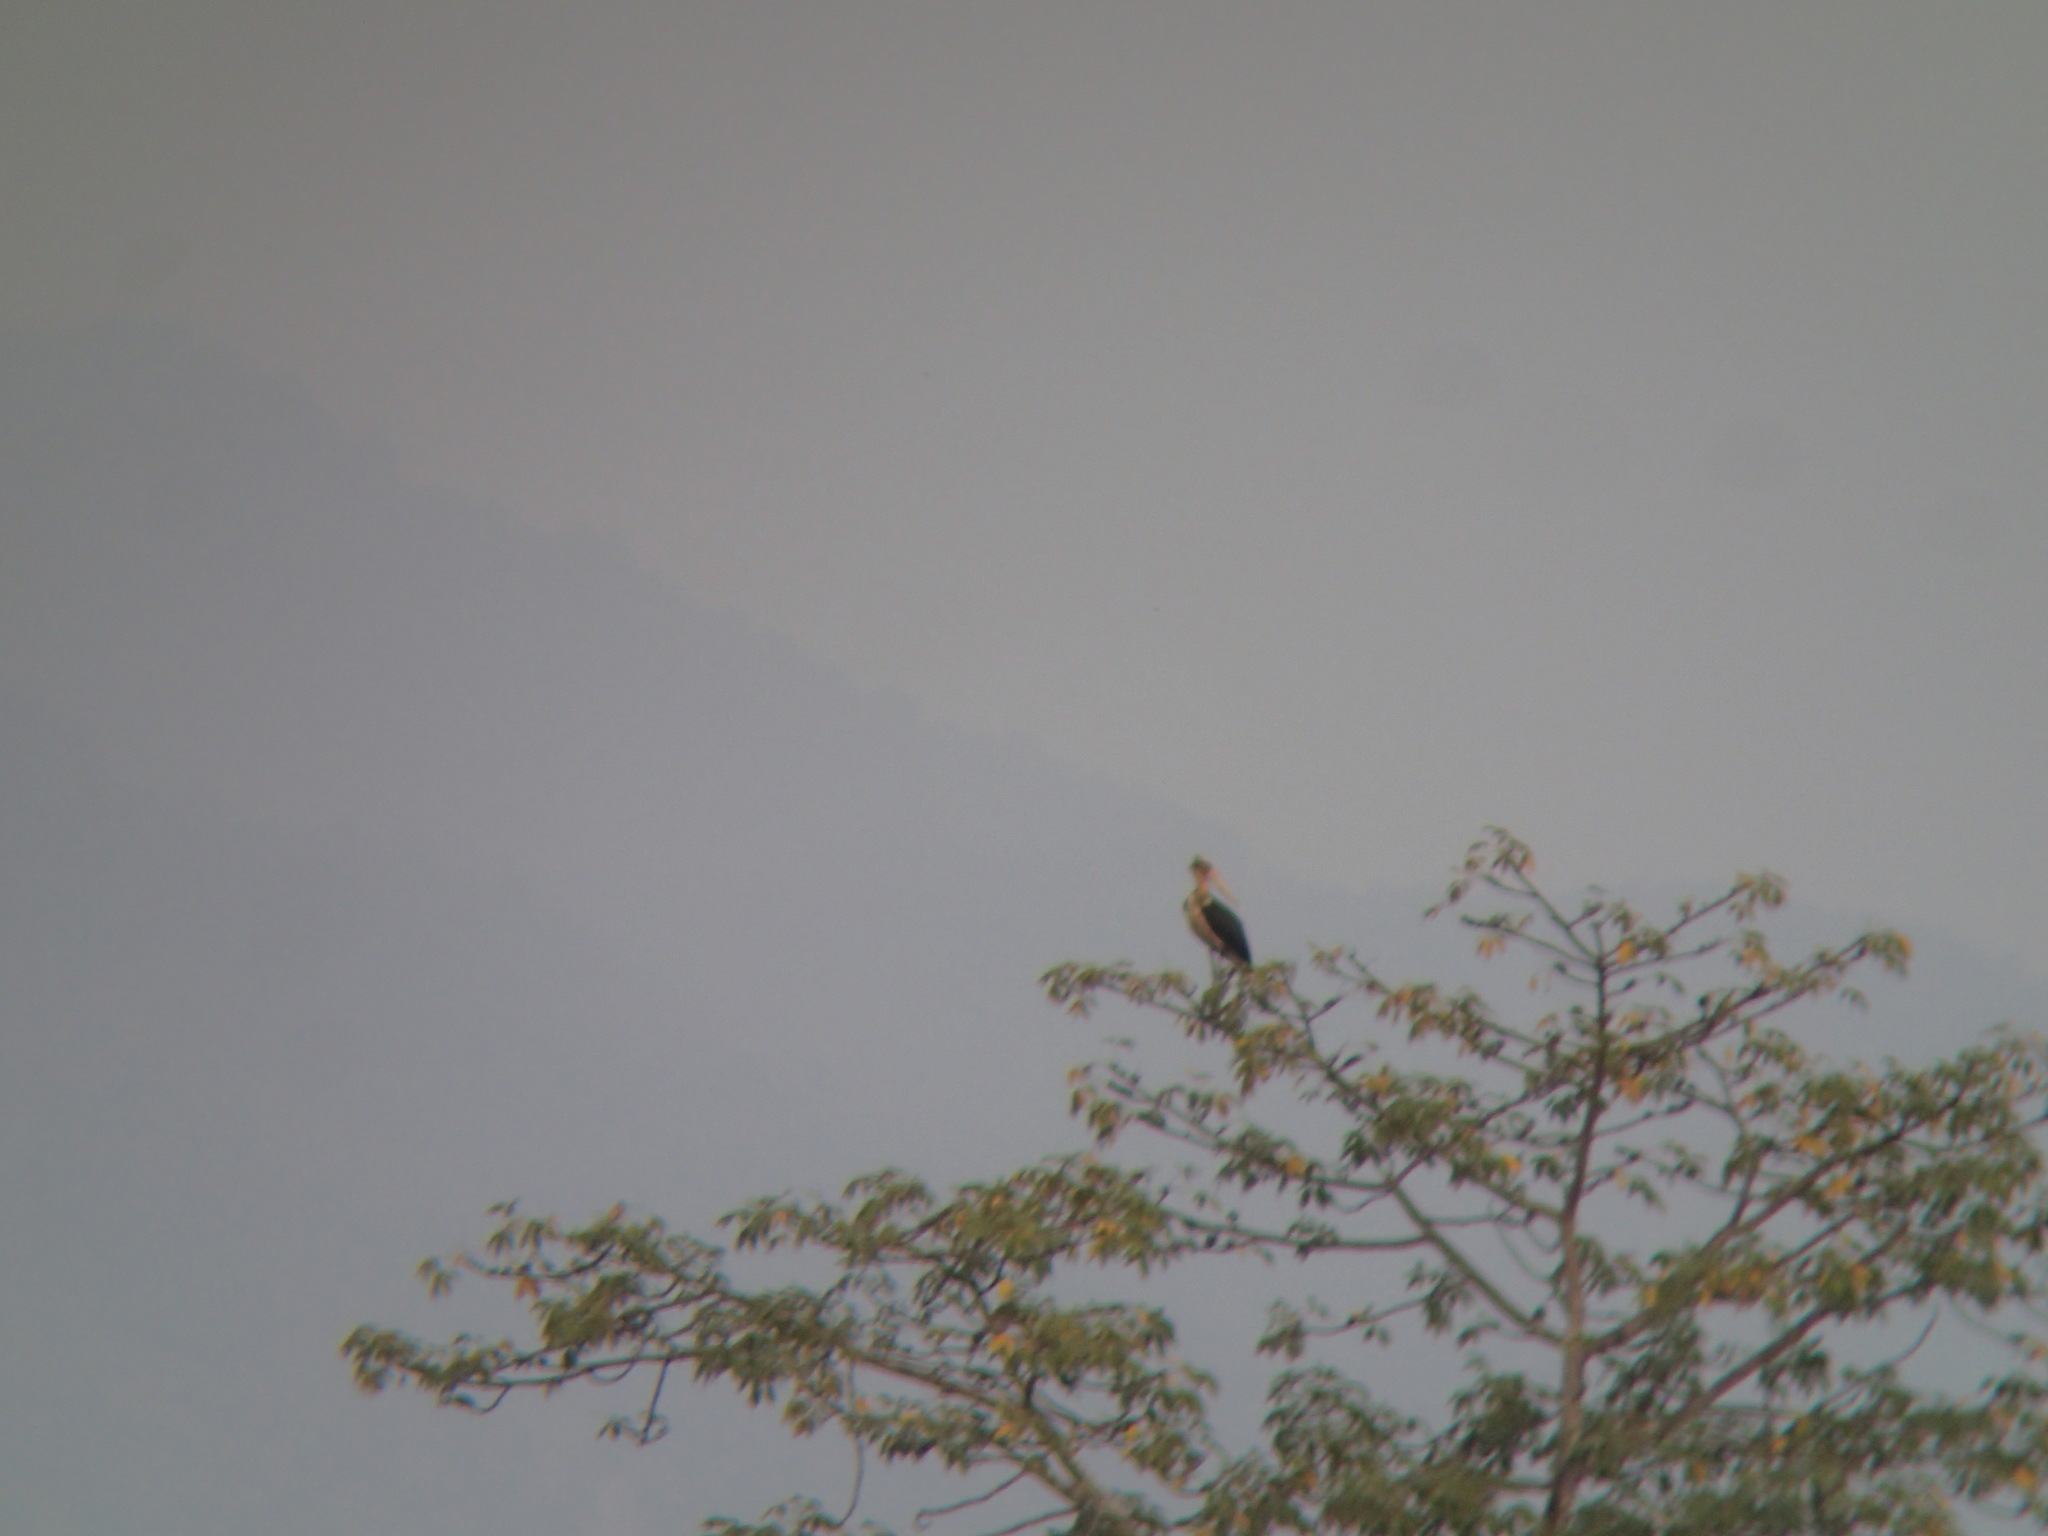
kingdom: Animalia
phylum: Chordata
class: Aves
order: Ciconiiformes
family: Ciconiidae
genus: Leptoptilos
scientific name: Leptoptilos javanicus
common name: Lesser adjutant
